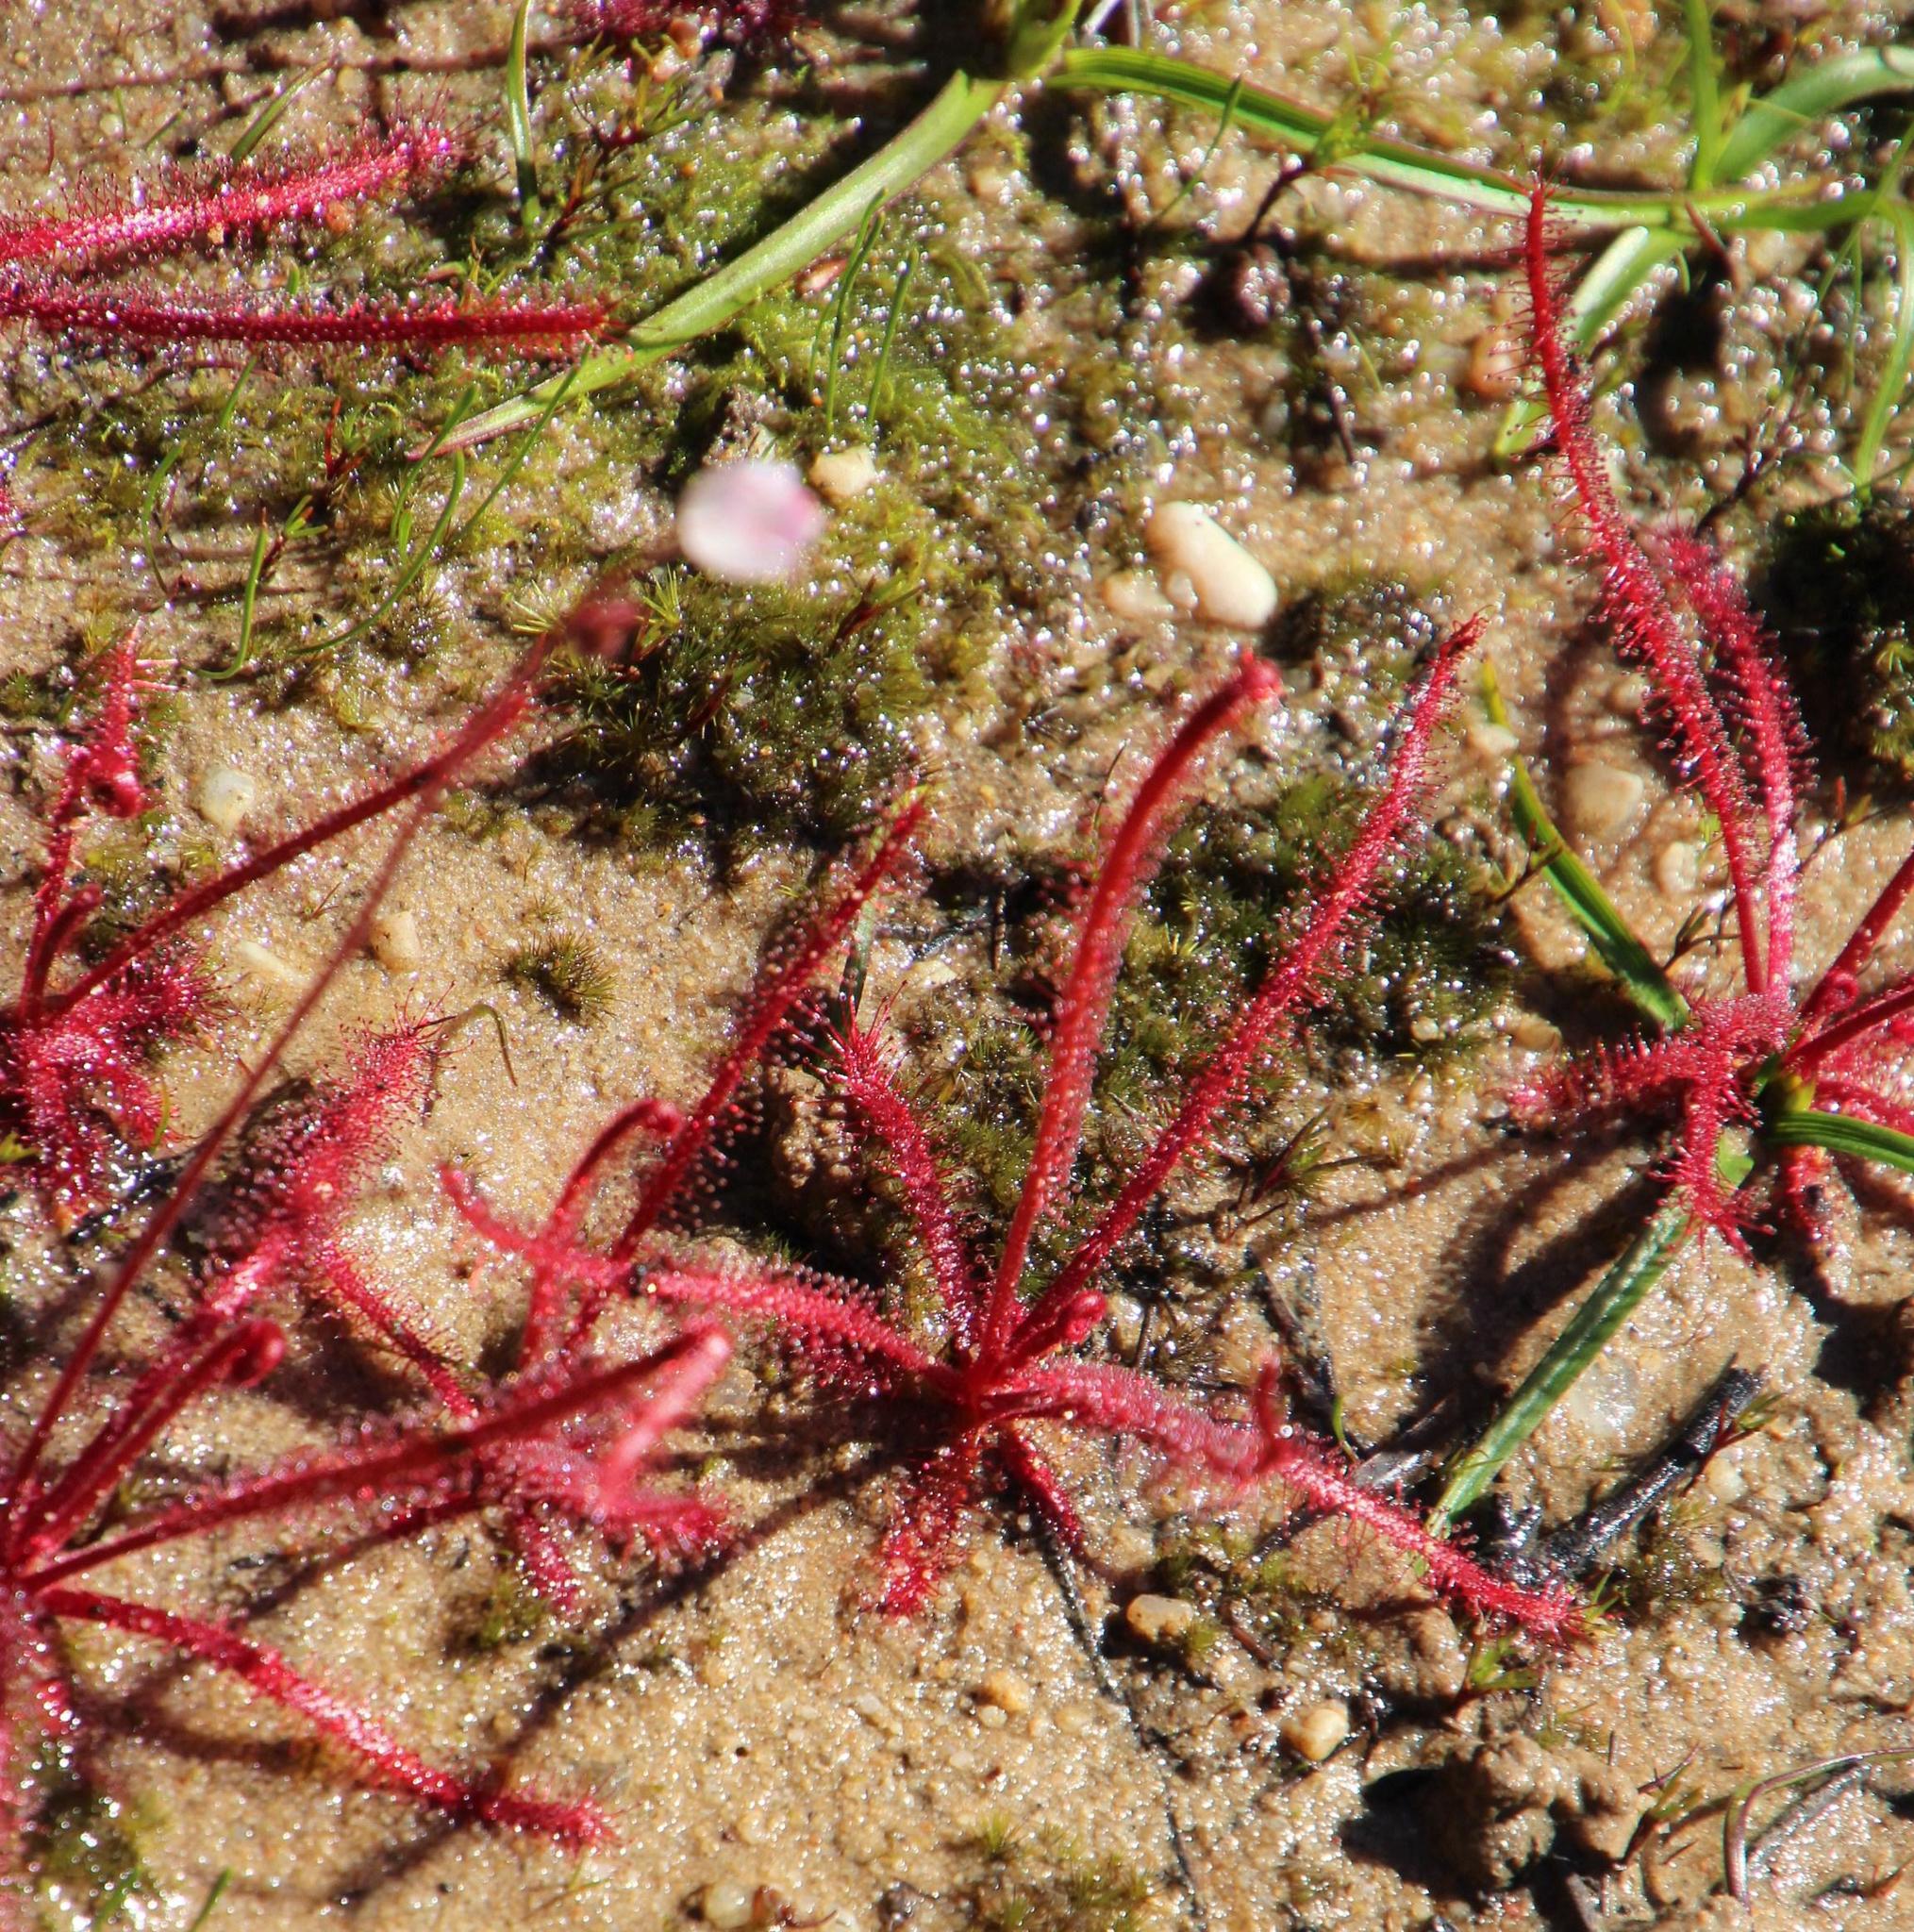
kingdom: Plantae
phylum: Tracheophyta
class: Magnoliopsida
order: Caryophyllales
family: Droseraceae
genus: Drosera
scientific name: Drosera alba
